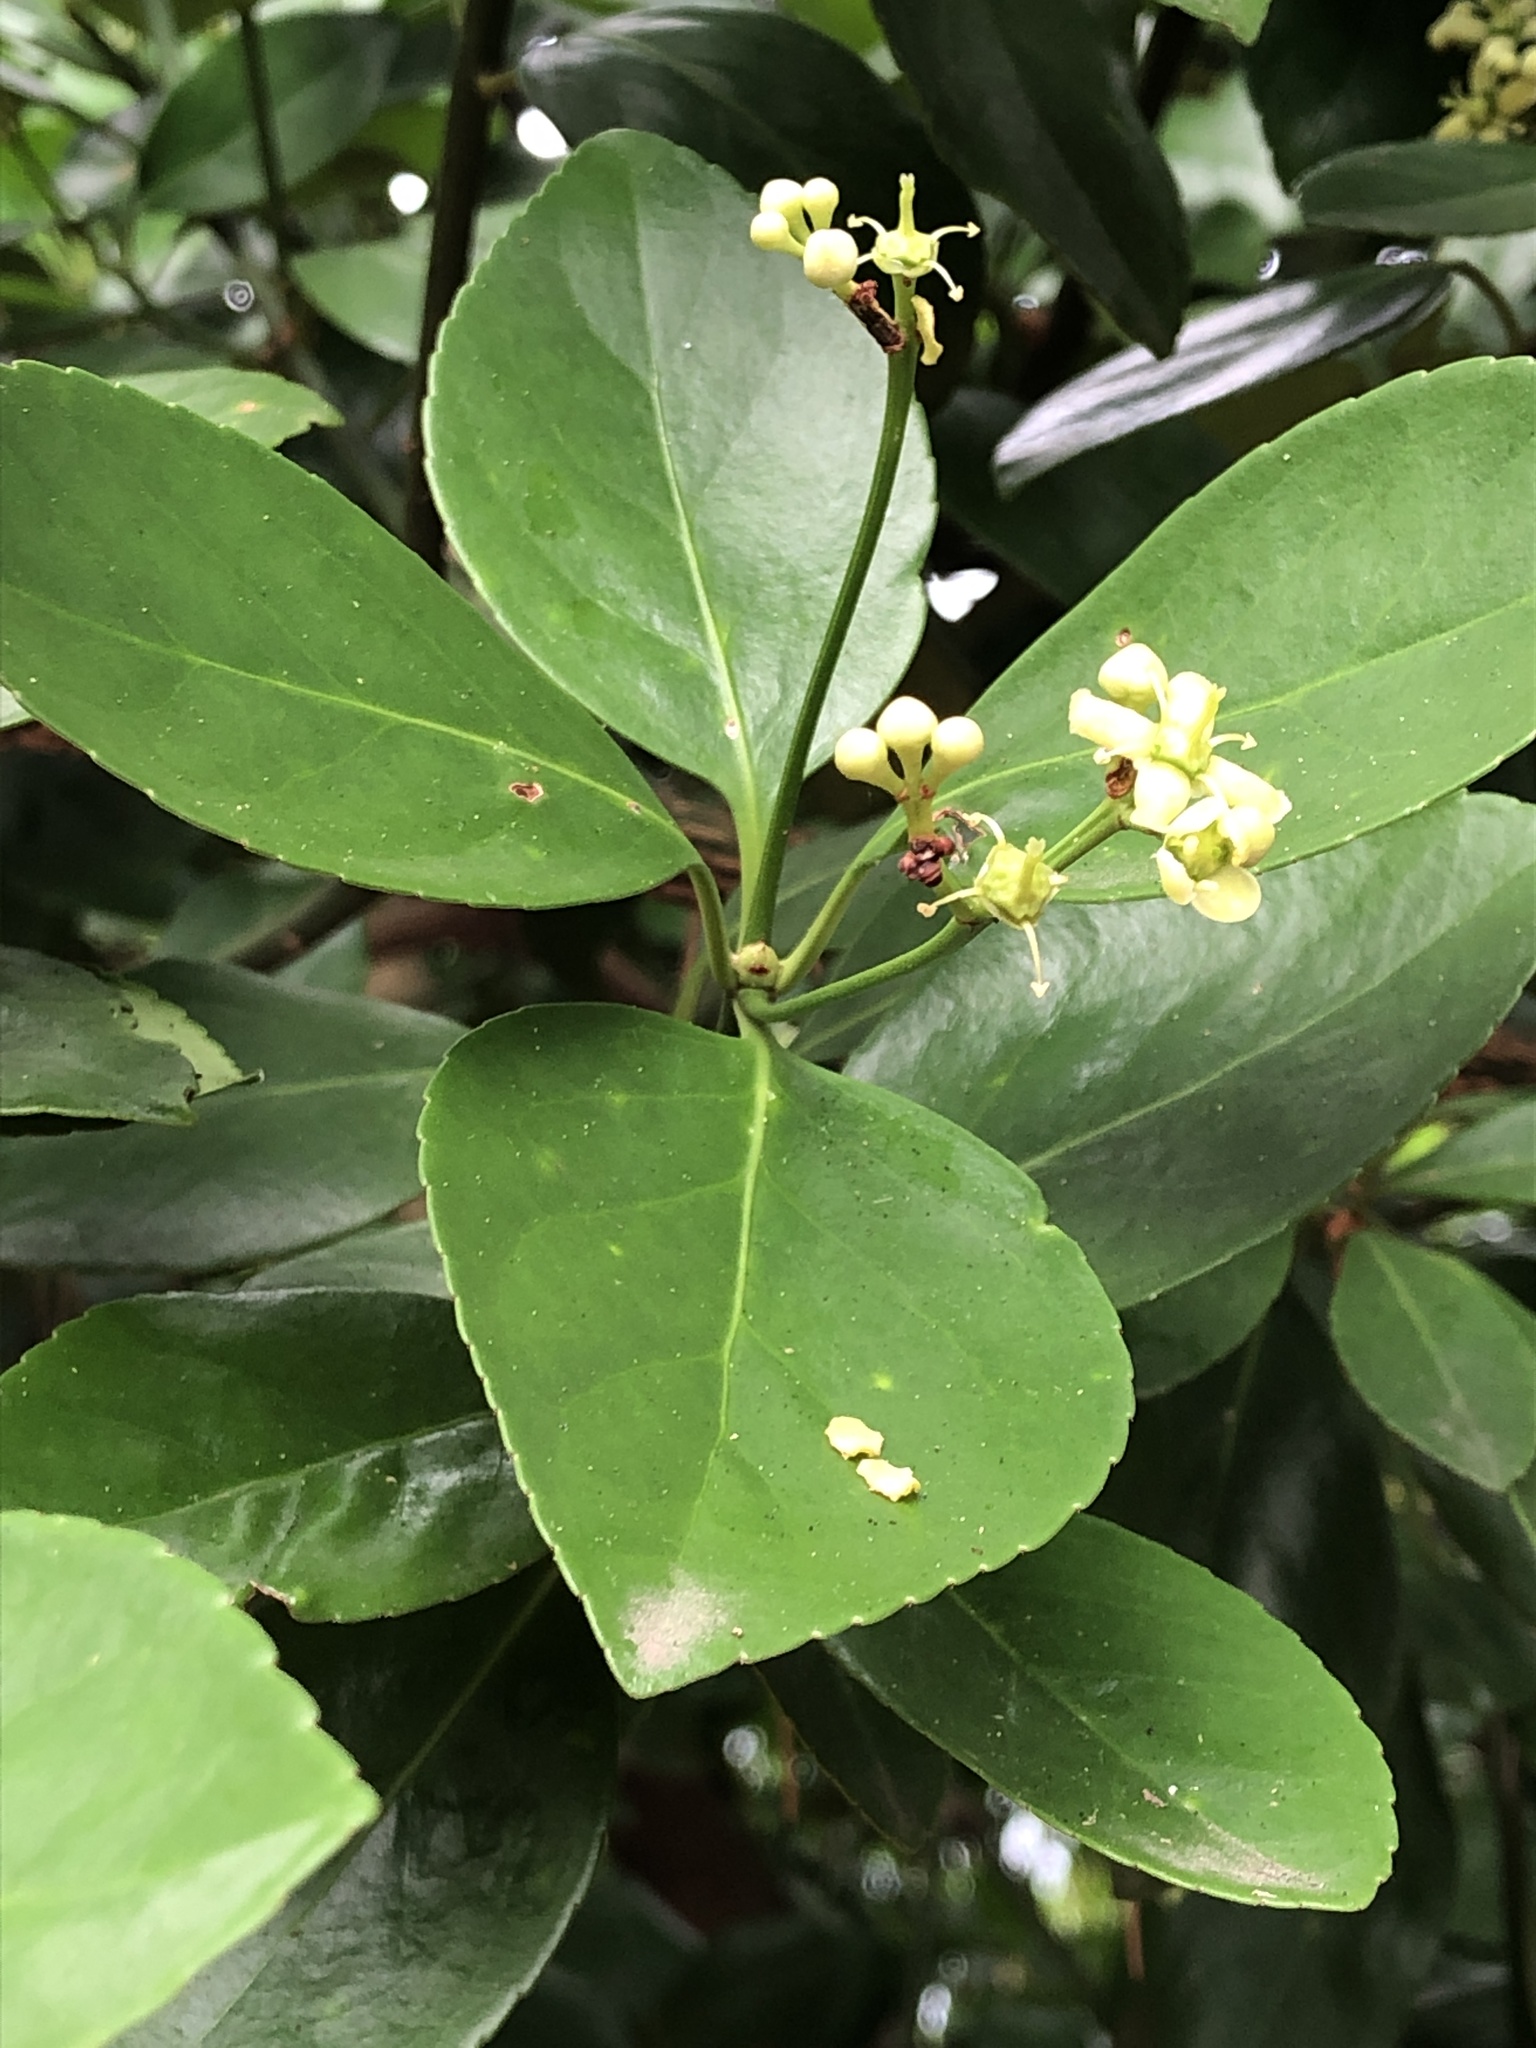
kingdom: Plantae
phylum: Tracheophyta
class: Magnoliopsida
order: Celastrales
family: Celastraceae
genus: Euonymus
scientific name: Euonymus japonicus
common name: Japanese spindletree
